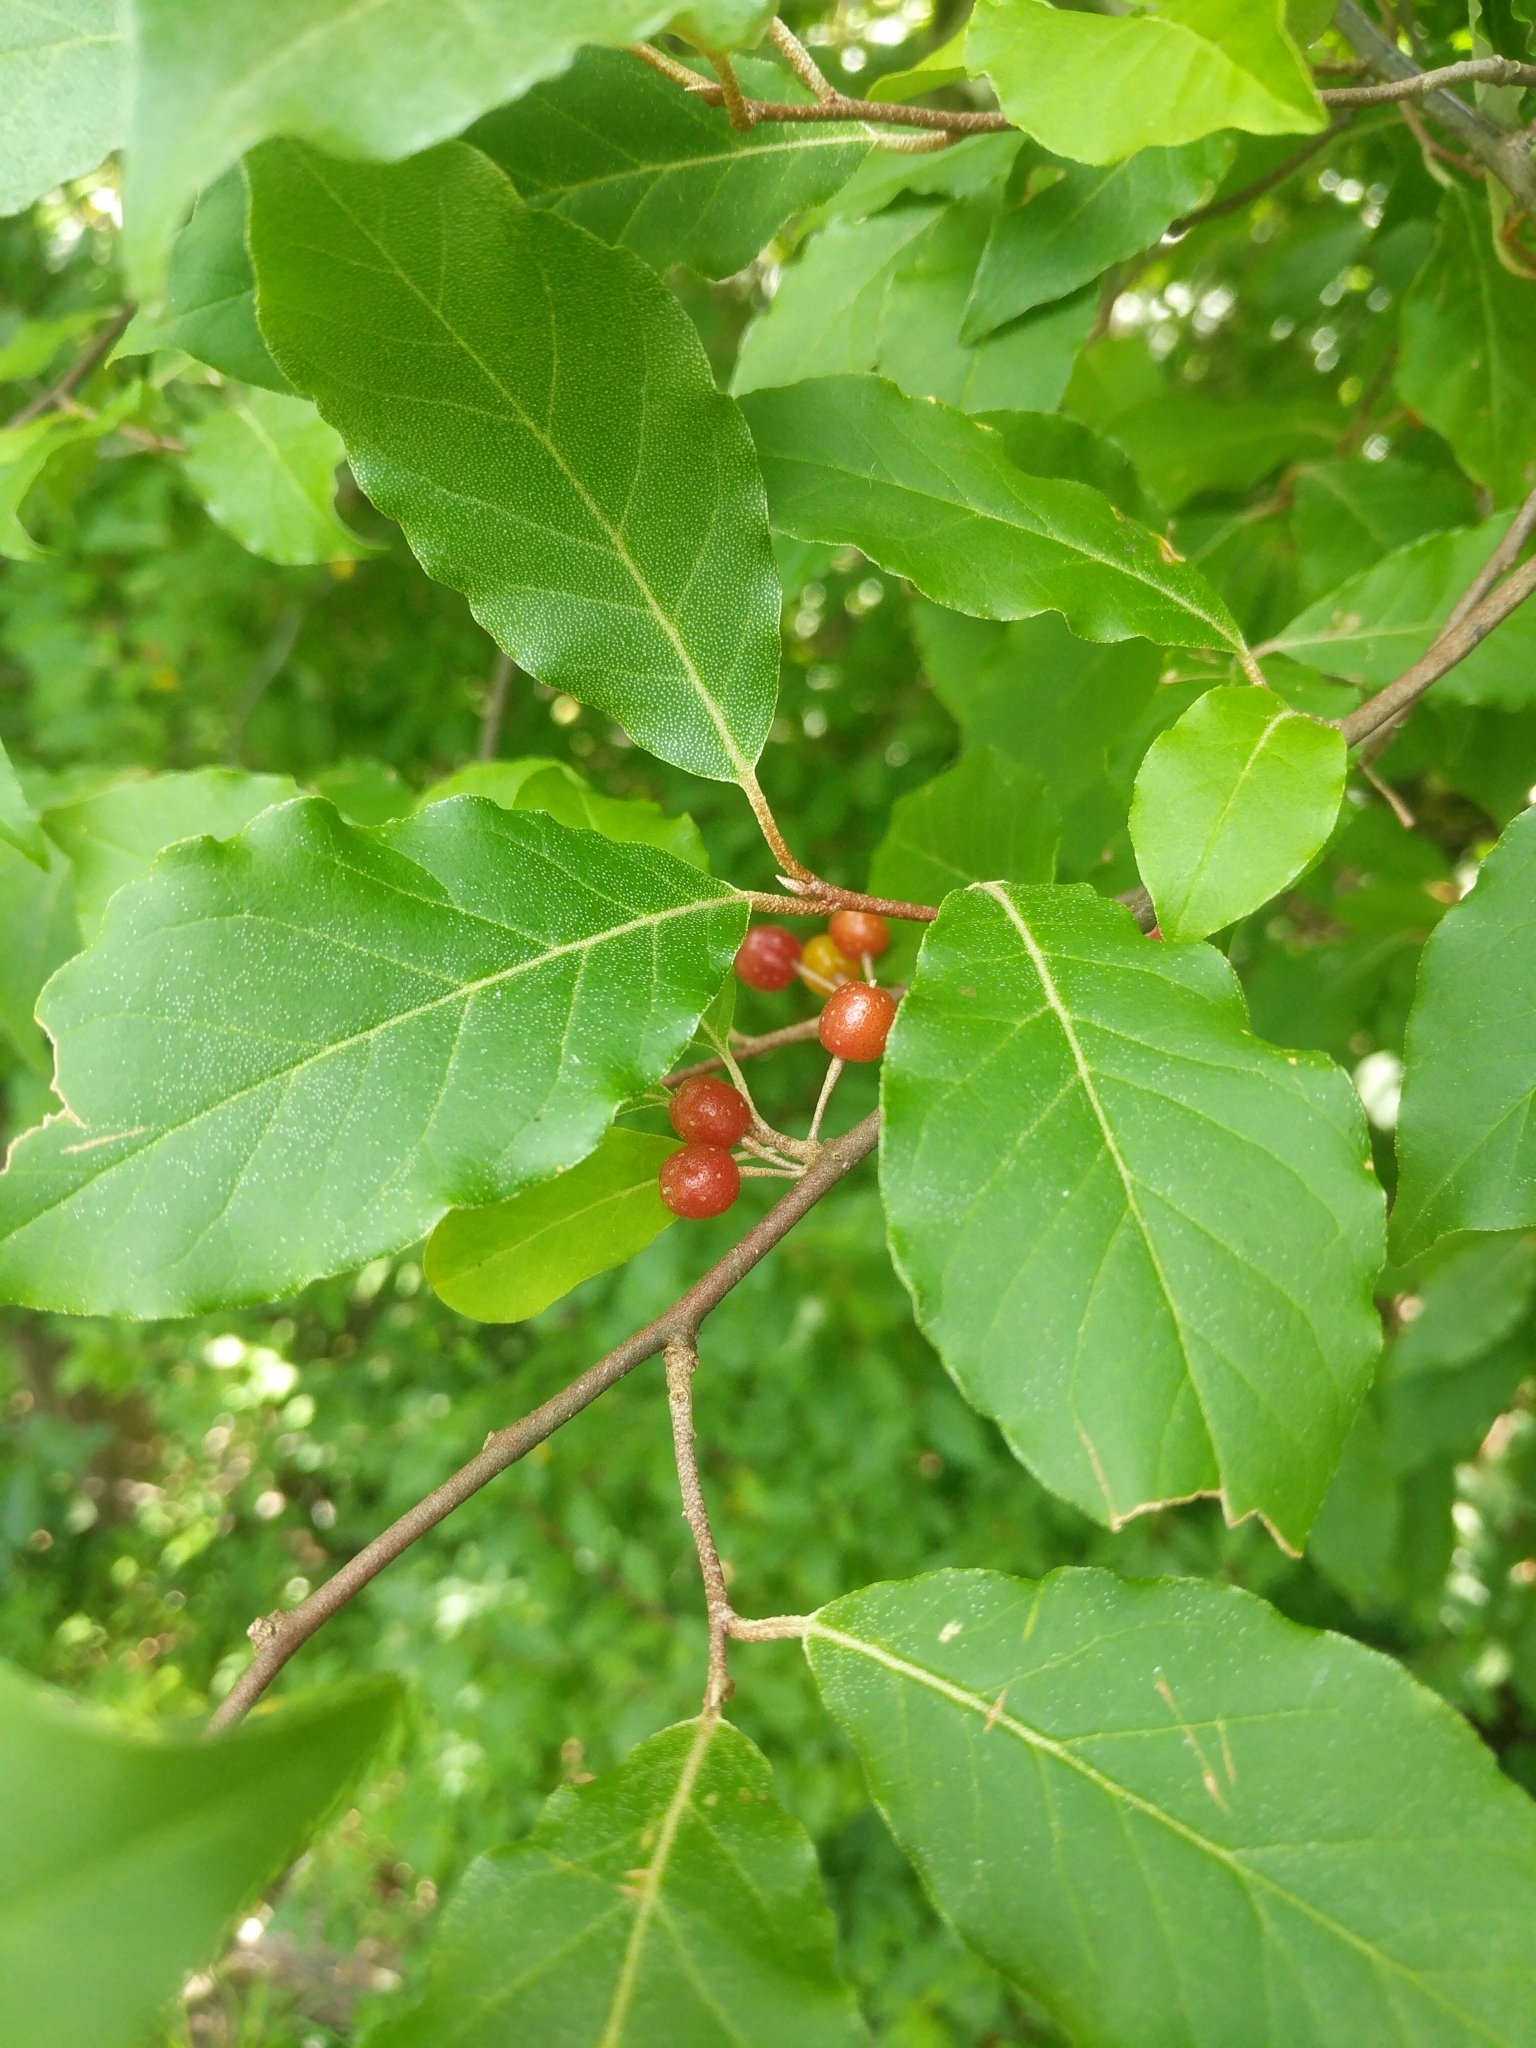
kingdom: Plantae
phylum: Tracheophyta
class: Magnoliopsida
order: Rosales
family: Elaeagnaceae
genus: Elaeagnus
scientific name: Elaeagnus umbellata
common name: Autumn olive
